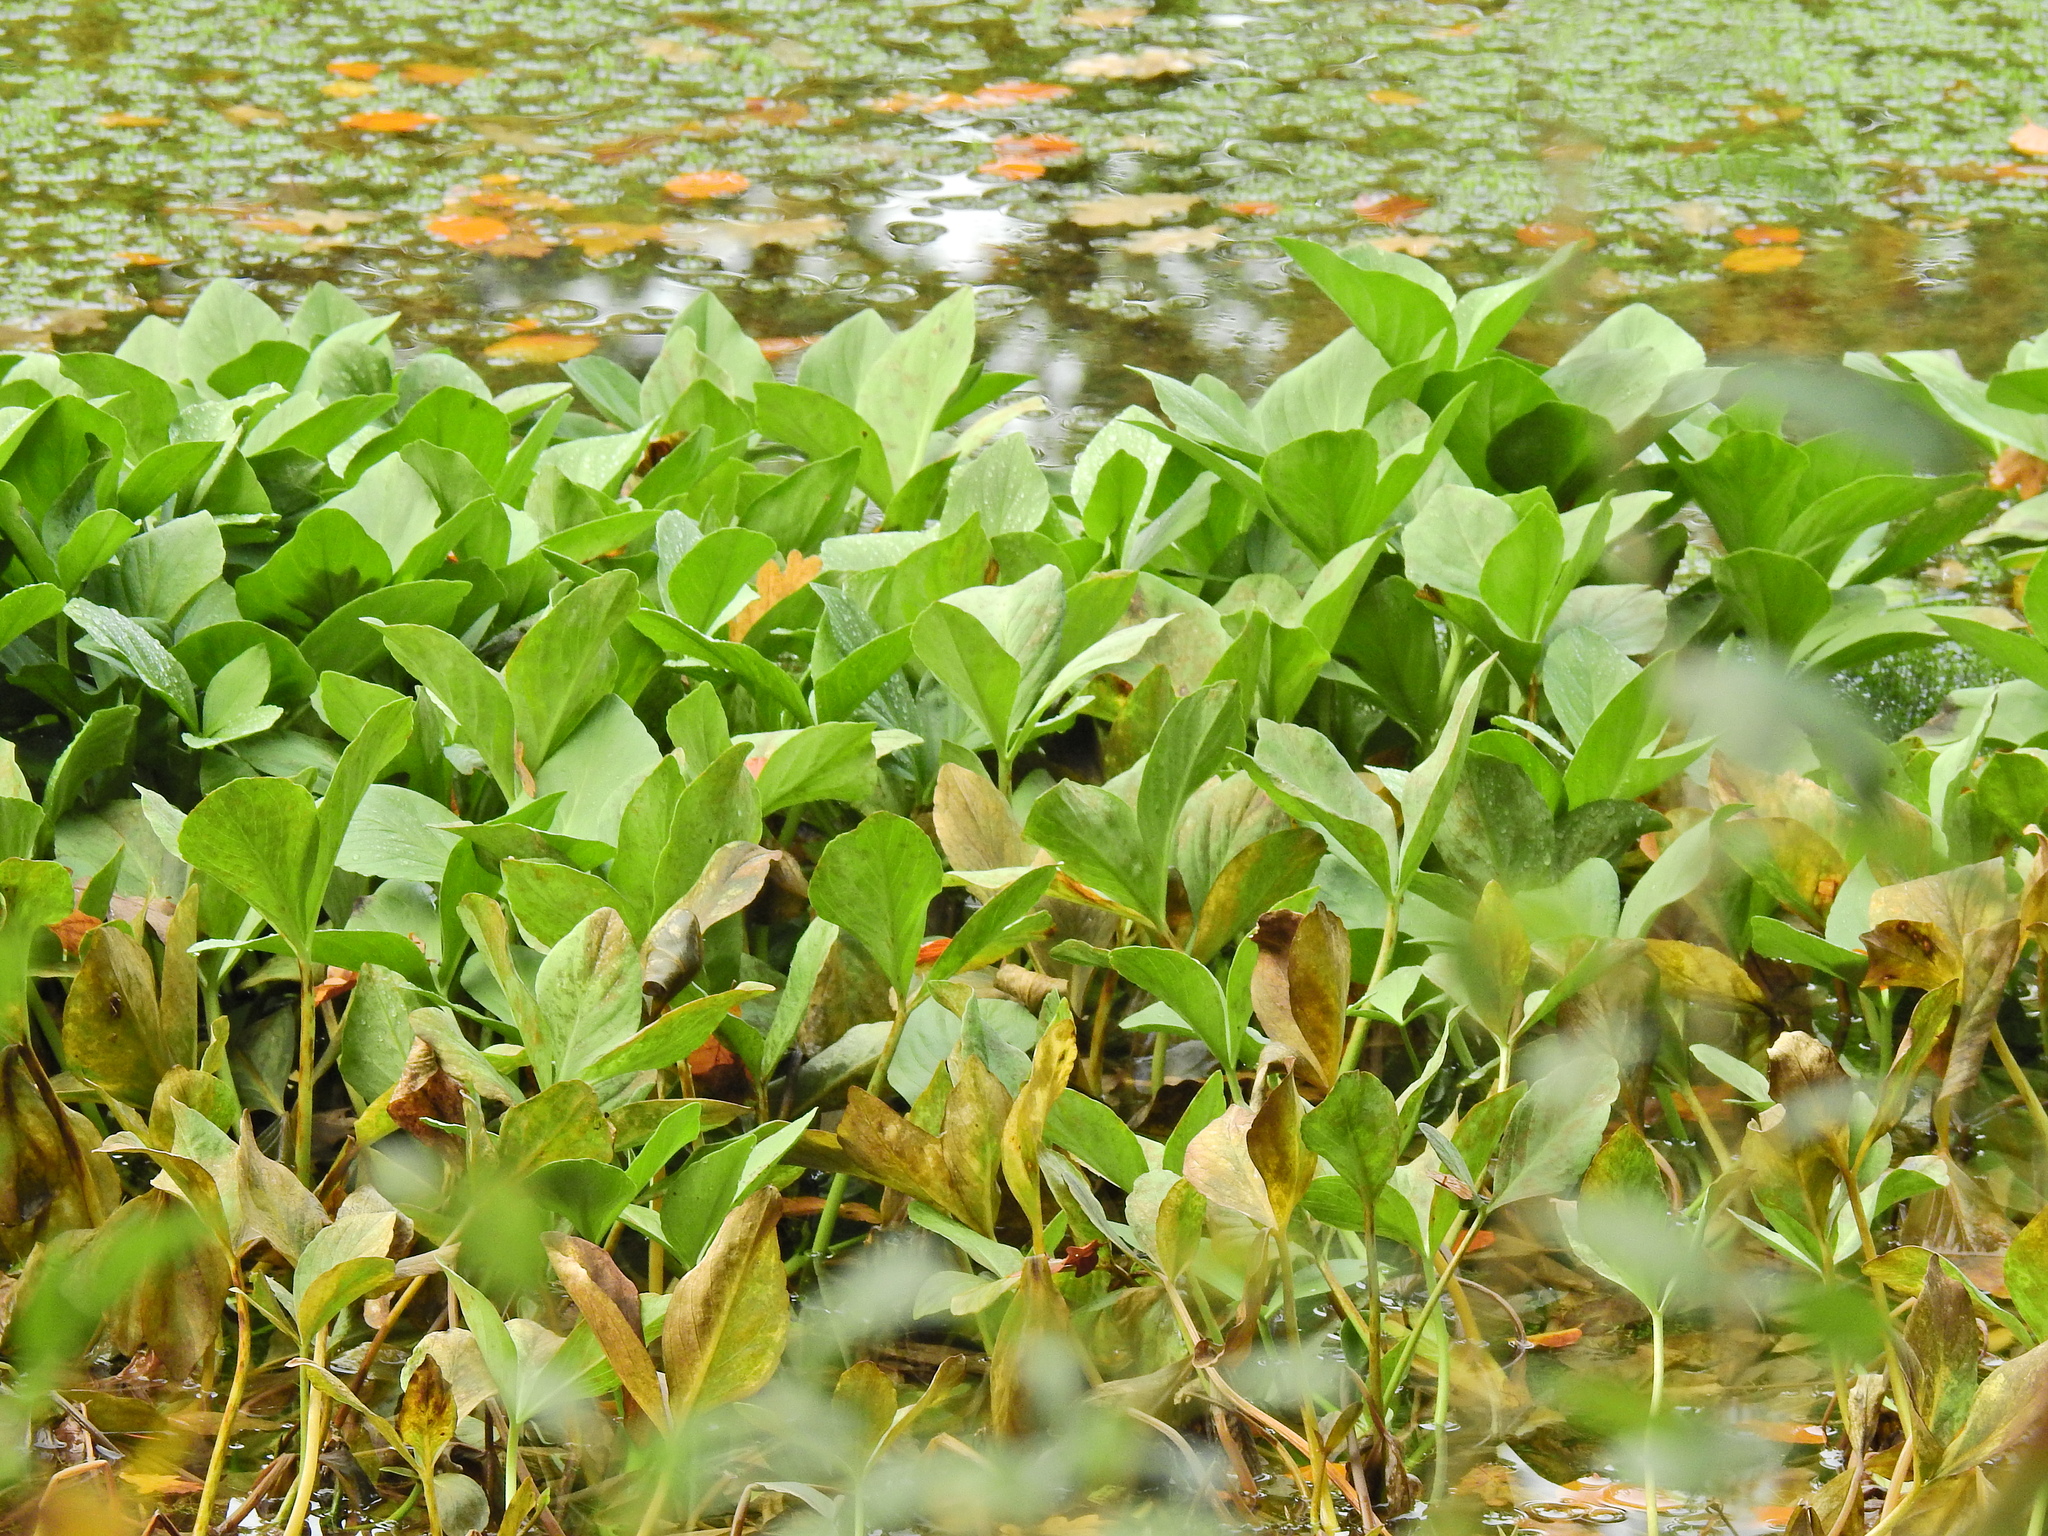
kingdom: Plantae
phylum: Tracheophyta
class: Magnoliopsida
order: Asterales
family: Menyanthaceae
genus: Menyanthes
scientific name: Menyanthes trifoliata
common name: Bogbean
